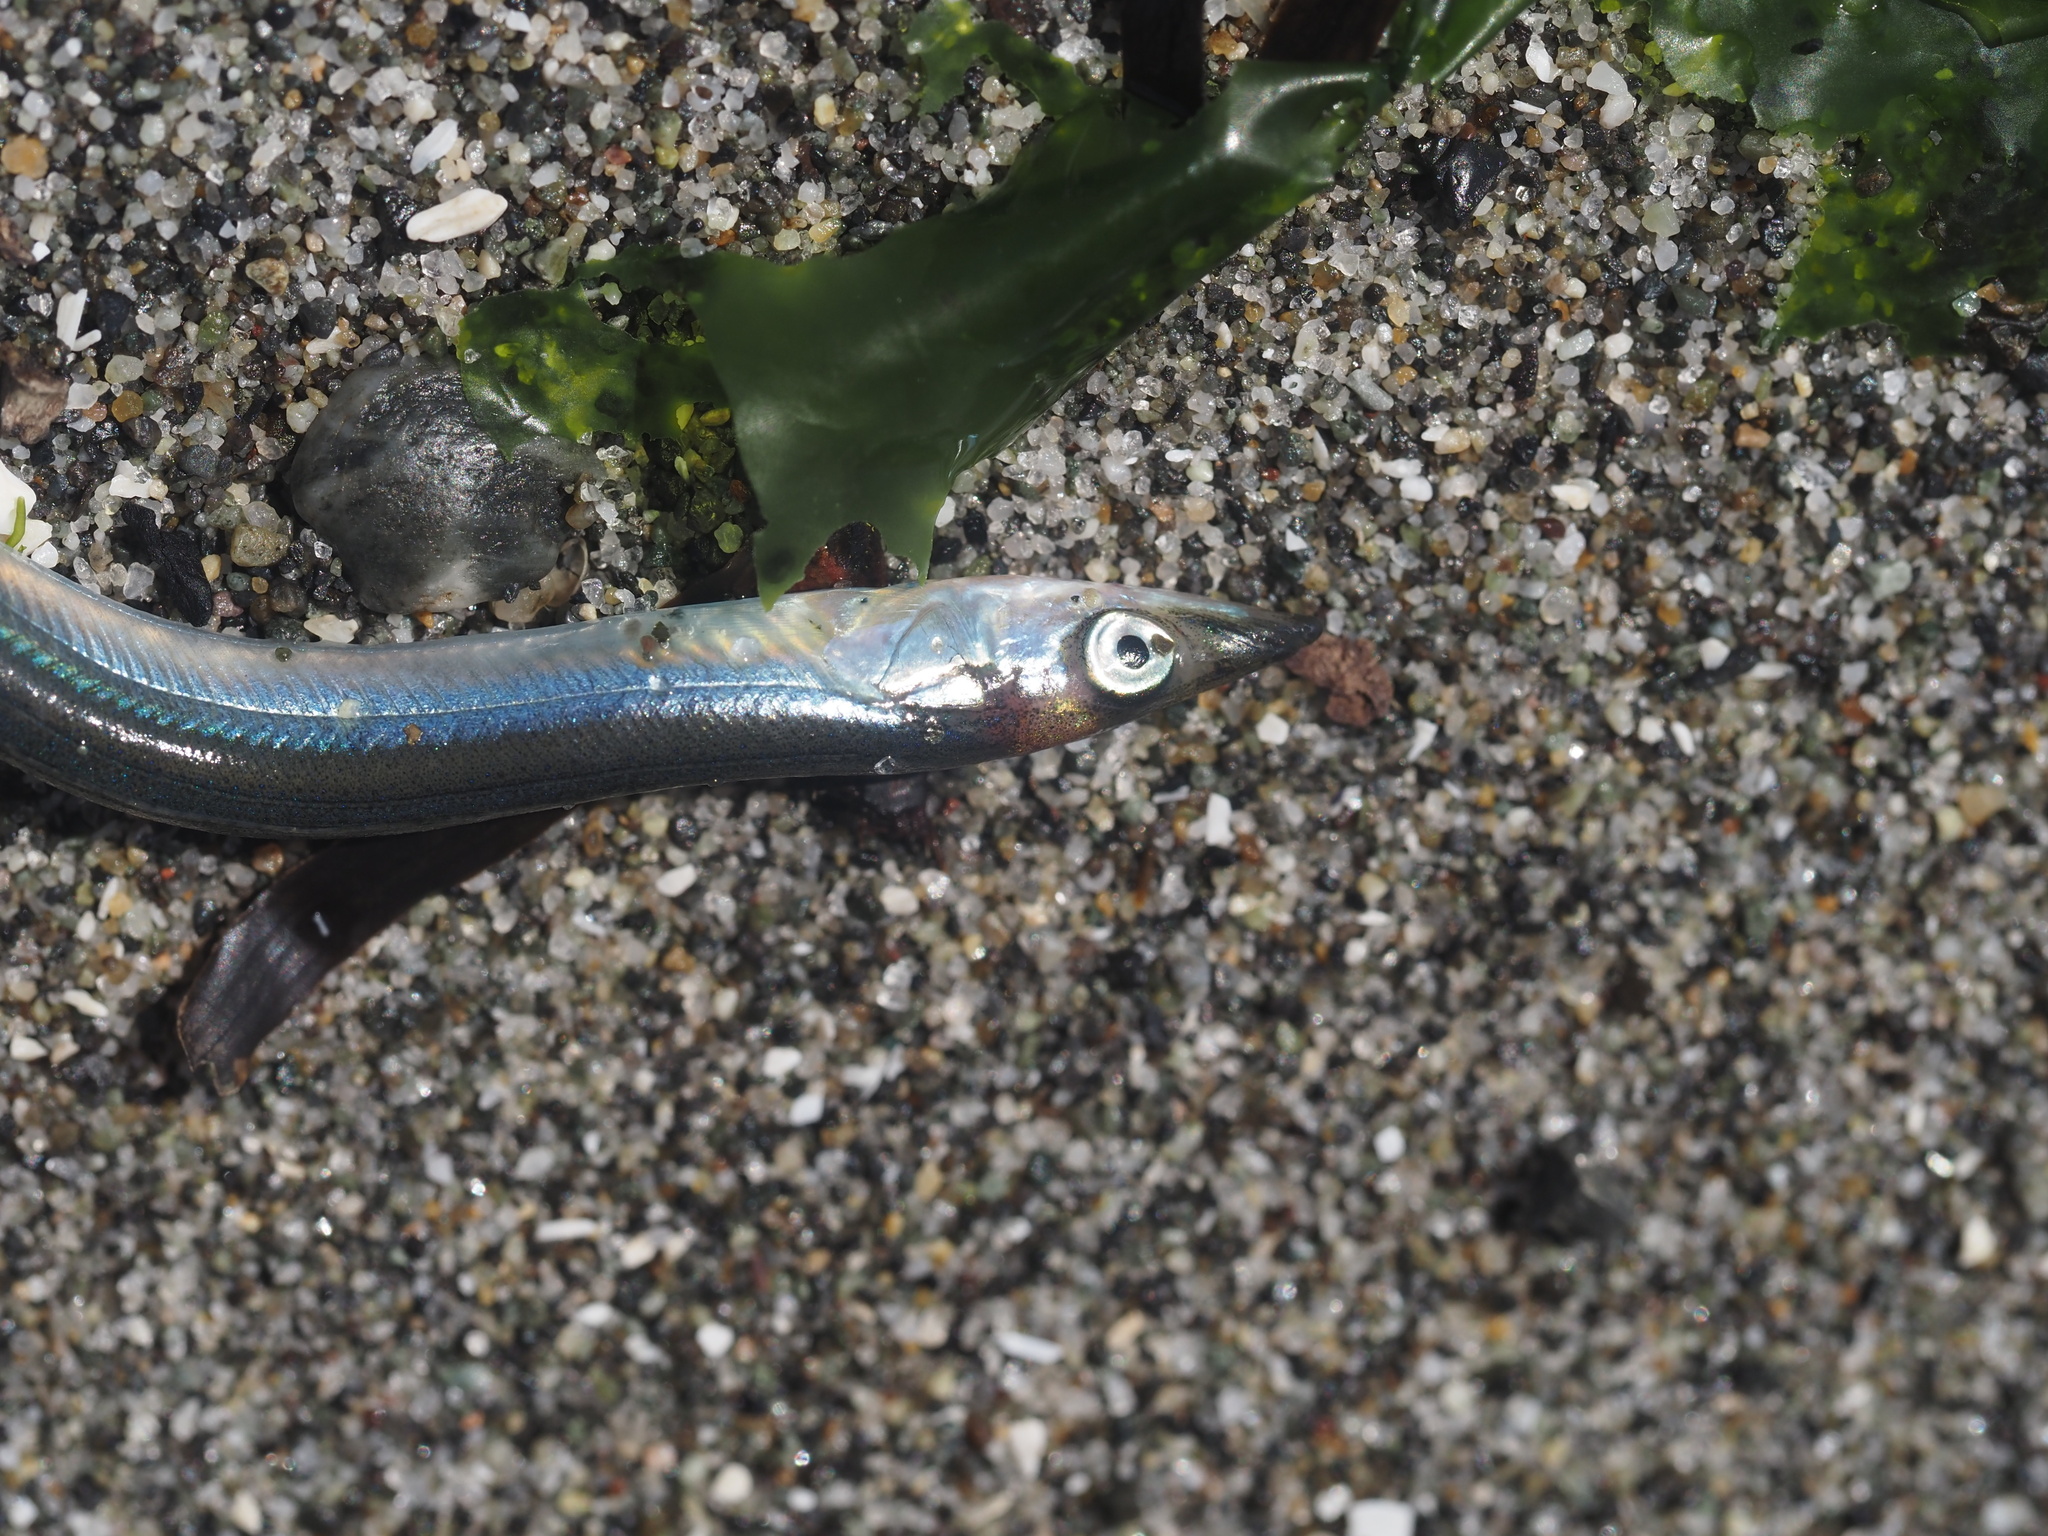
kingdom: Animalia
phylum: Chordata
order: Perciformes
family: Ammodytidae
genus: Ammodytes
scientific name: Ammodytes personatus
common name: Japanese sand lance
